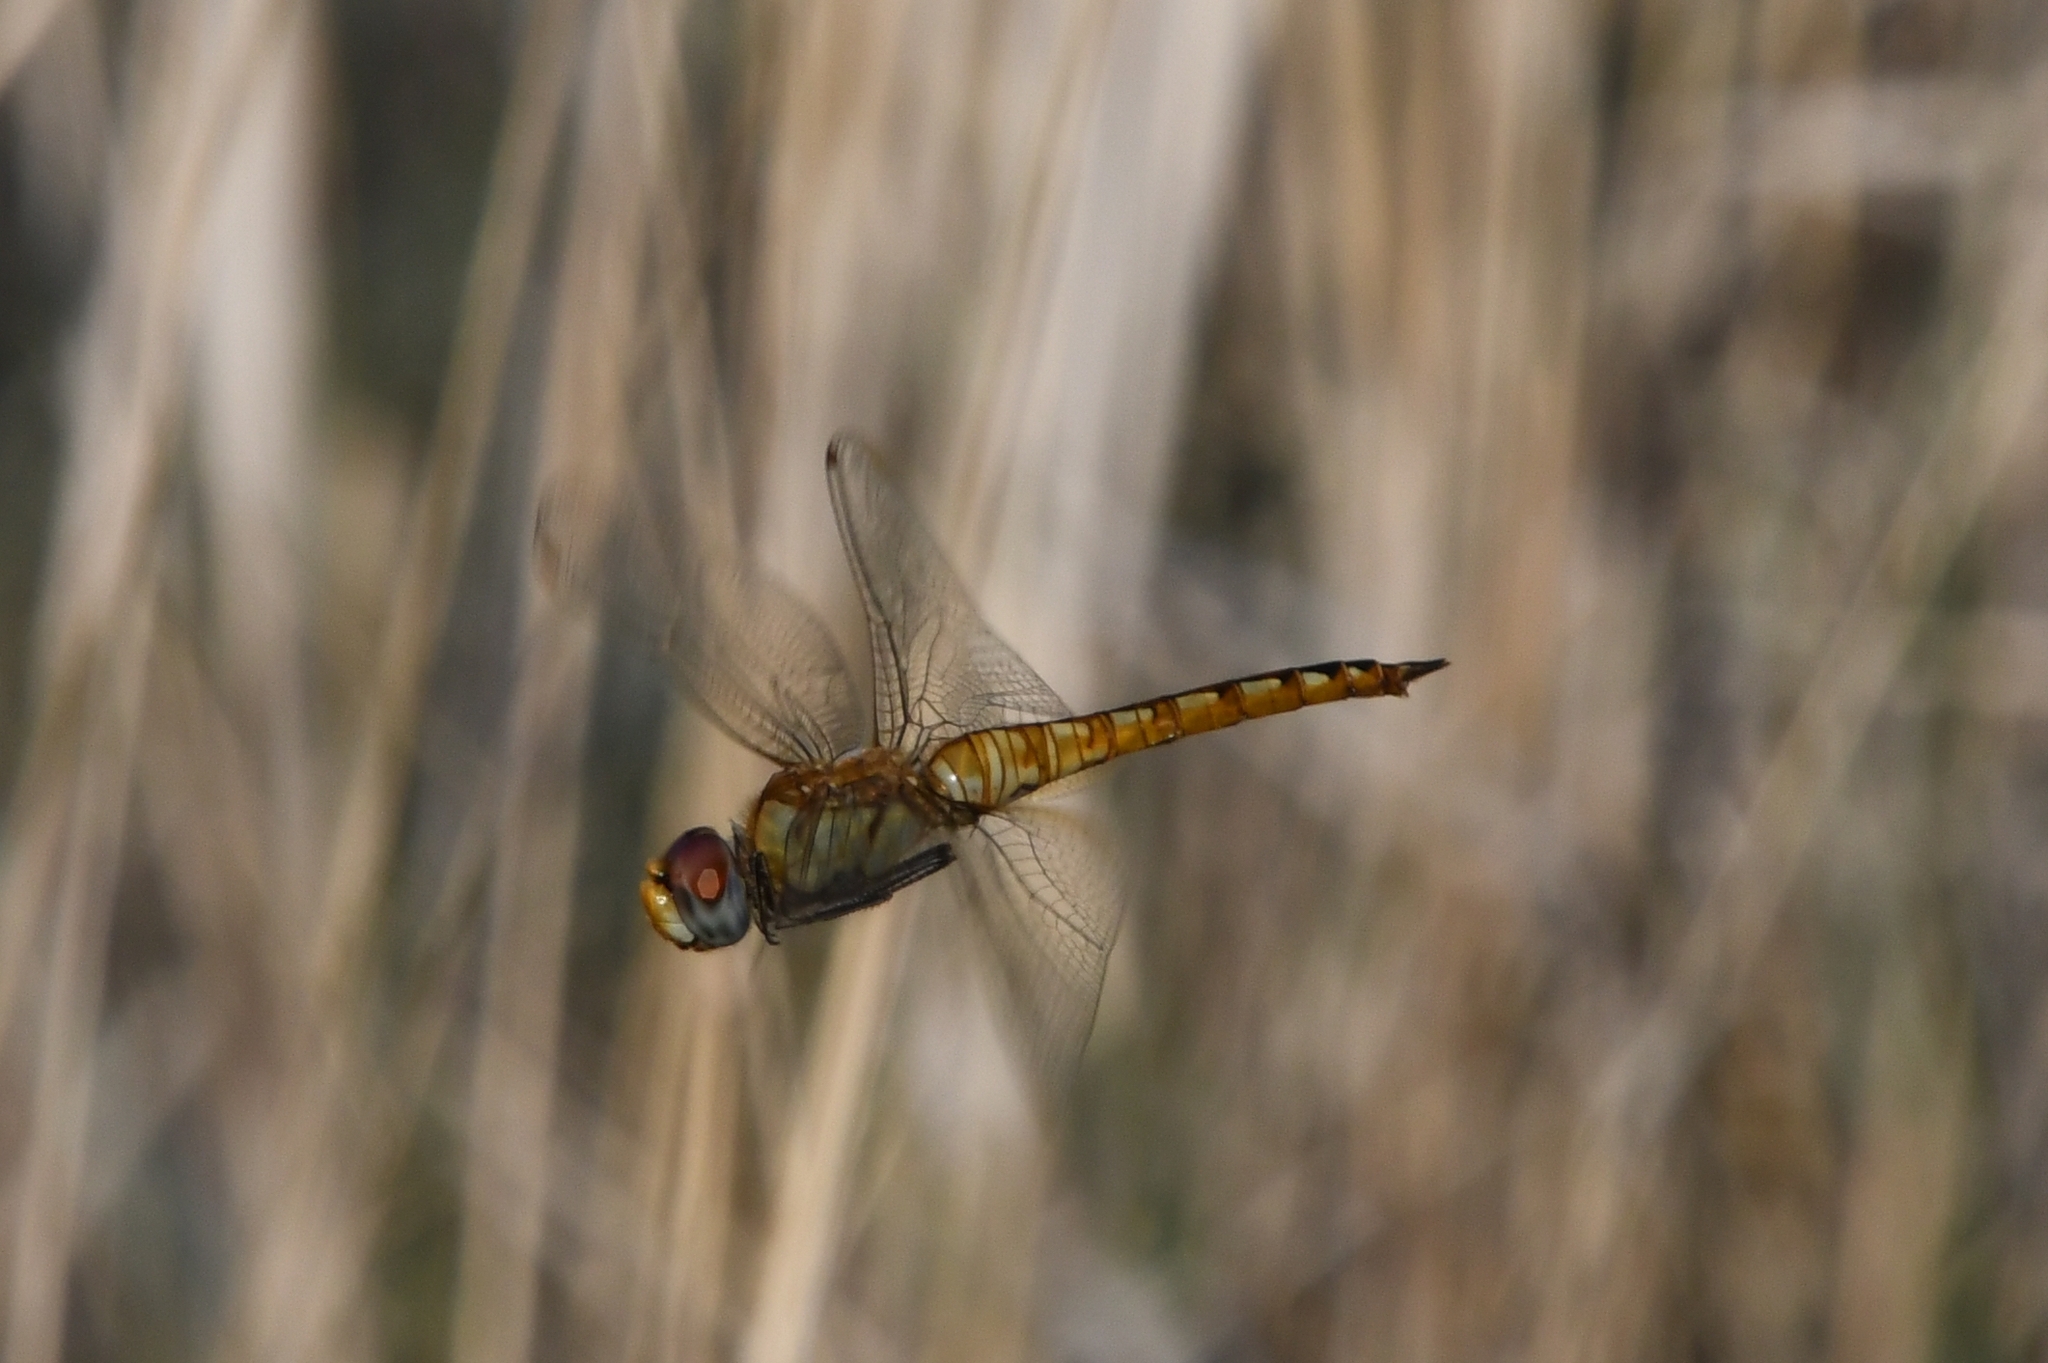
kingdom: Animalia
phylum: Arthropoda
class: Insecta
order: Odonata
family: Libellulidae
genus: Pantala
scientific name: Pantala flavescens
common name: Wandering glider
